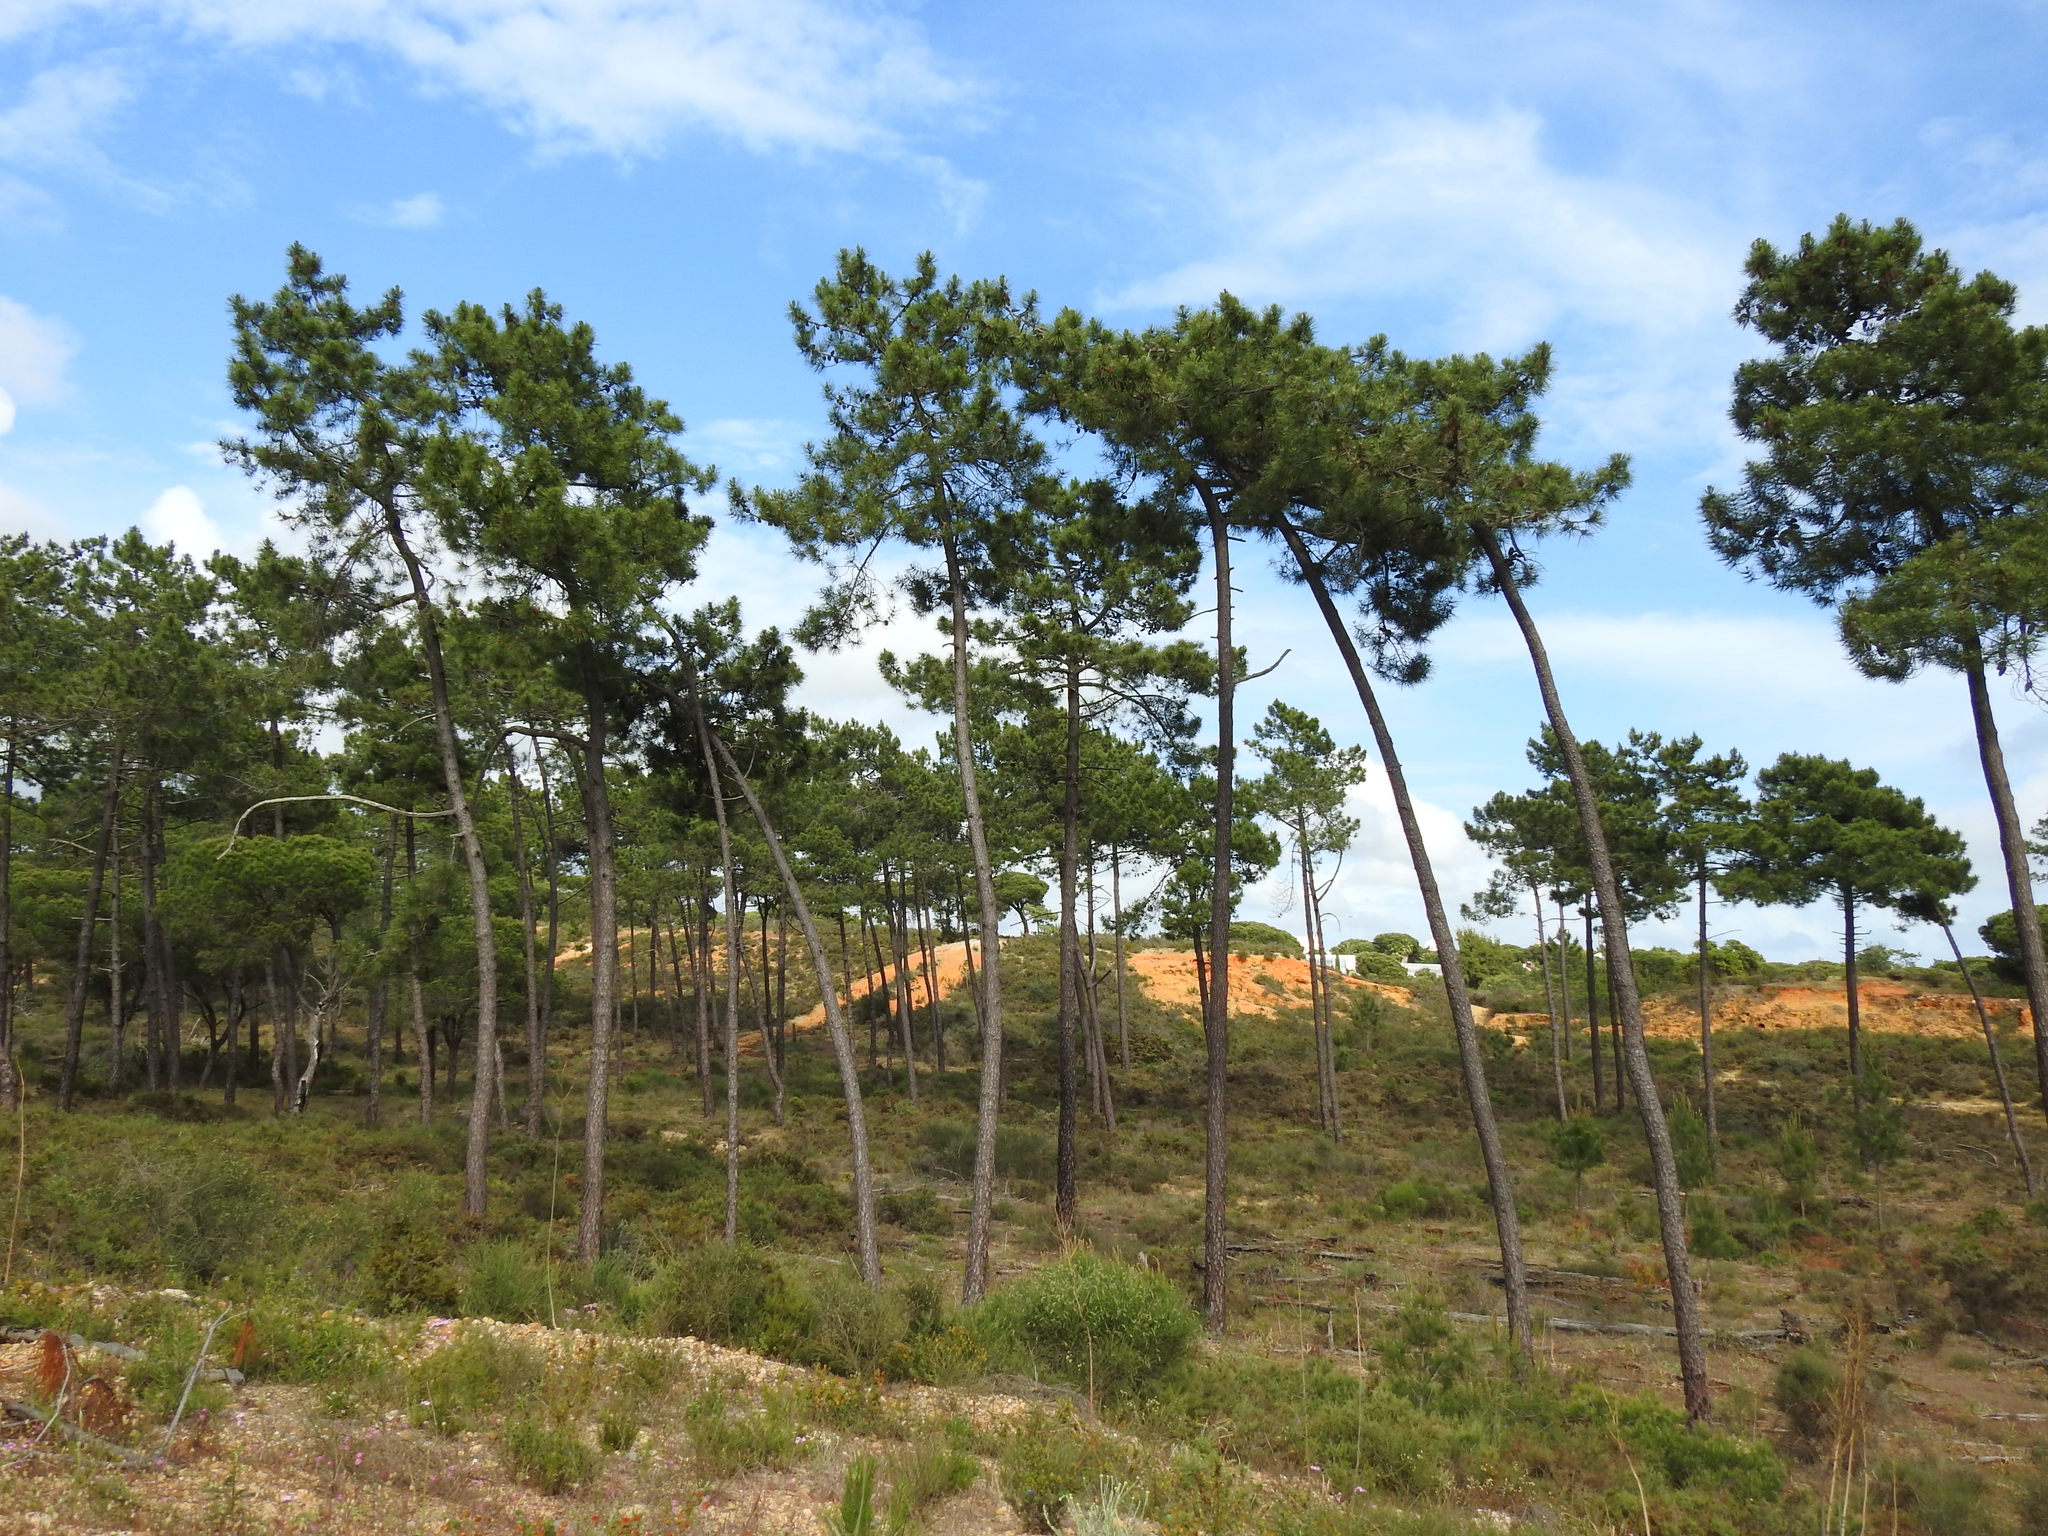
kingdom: Plantae
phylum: Tracheophyta
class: Pinopsida
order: Pinales
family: Pinaceae
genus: Pinus
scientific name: Pinus pinaster
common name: Maritime pine
